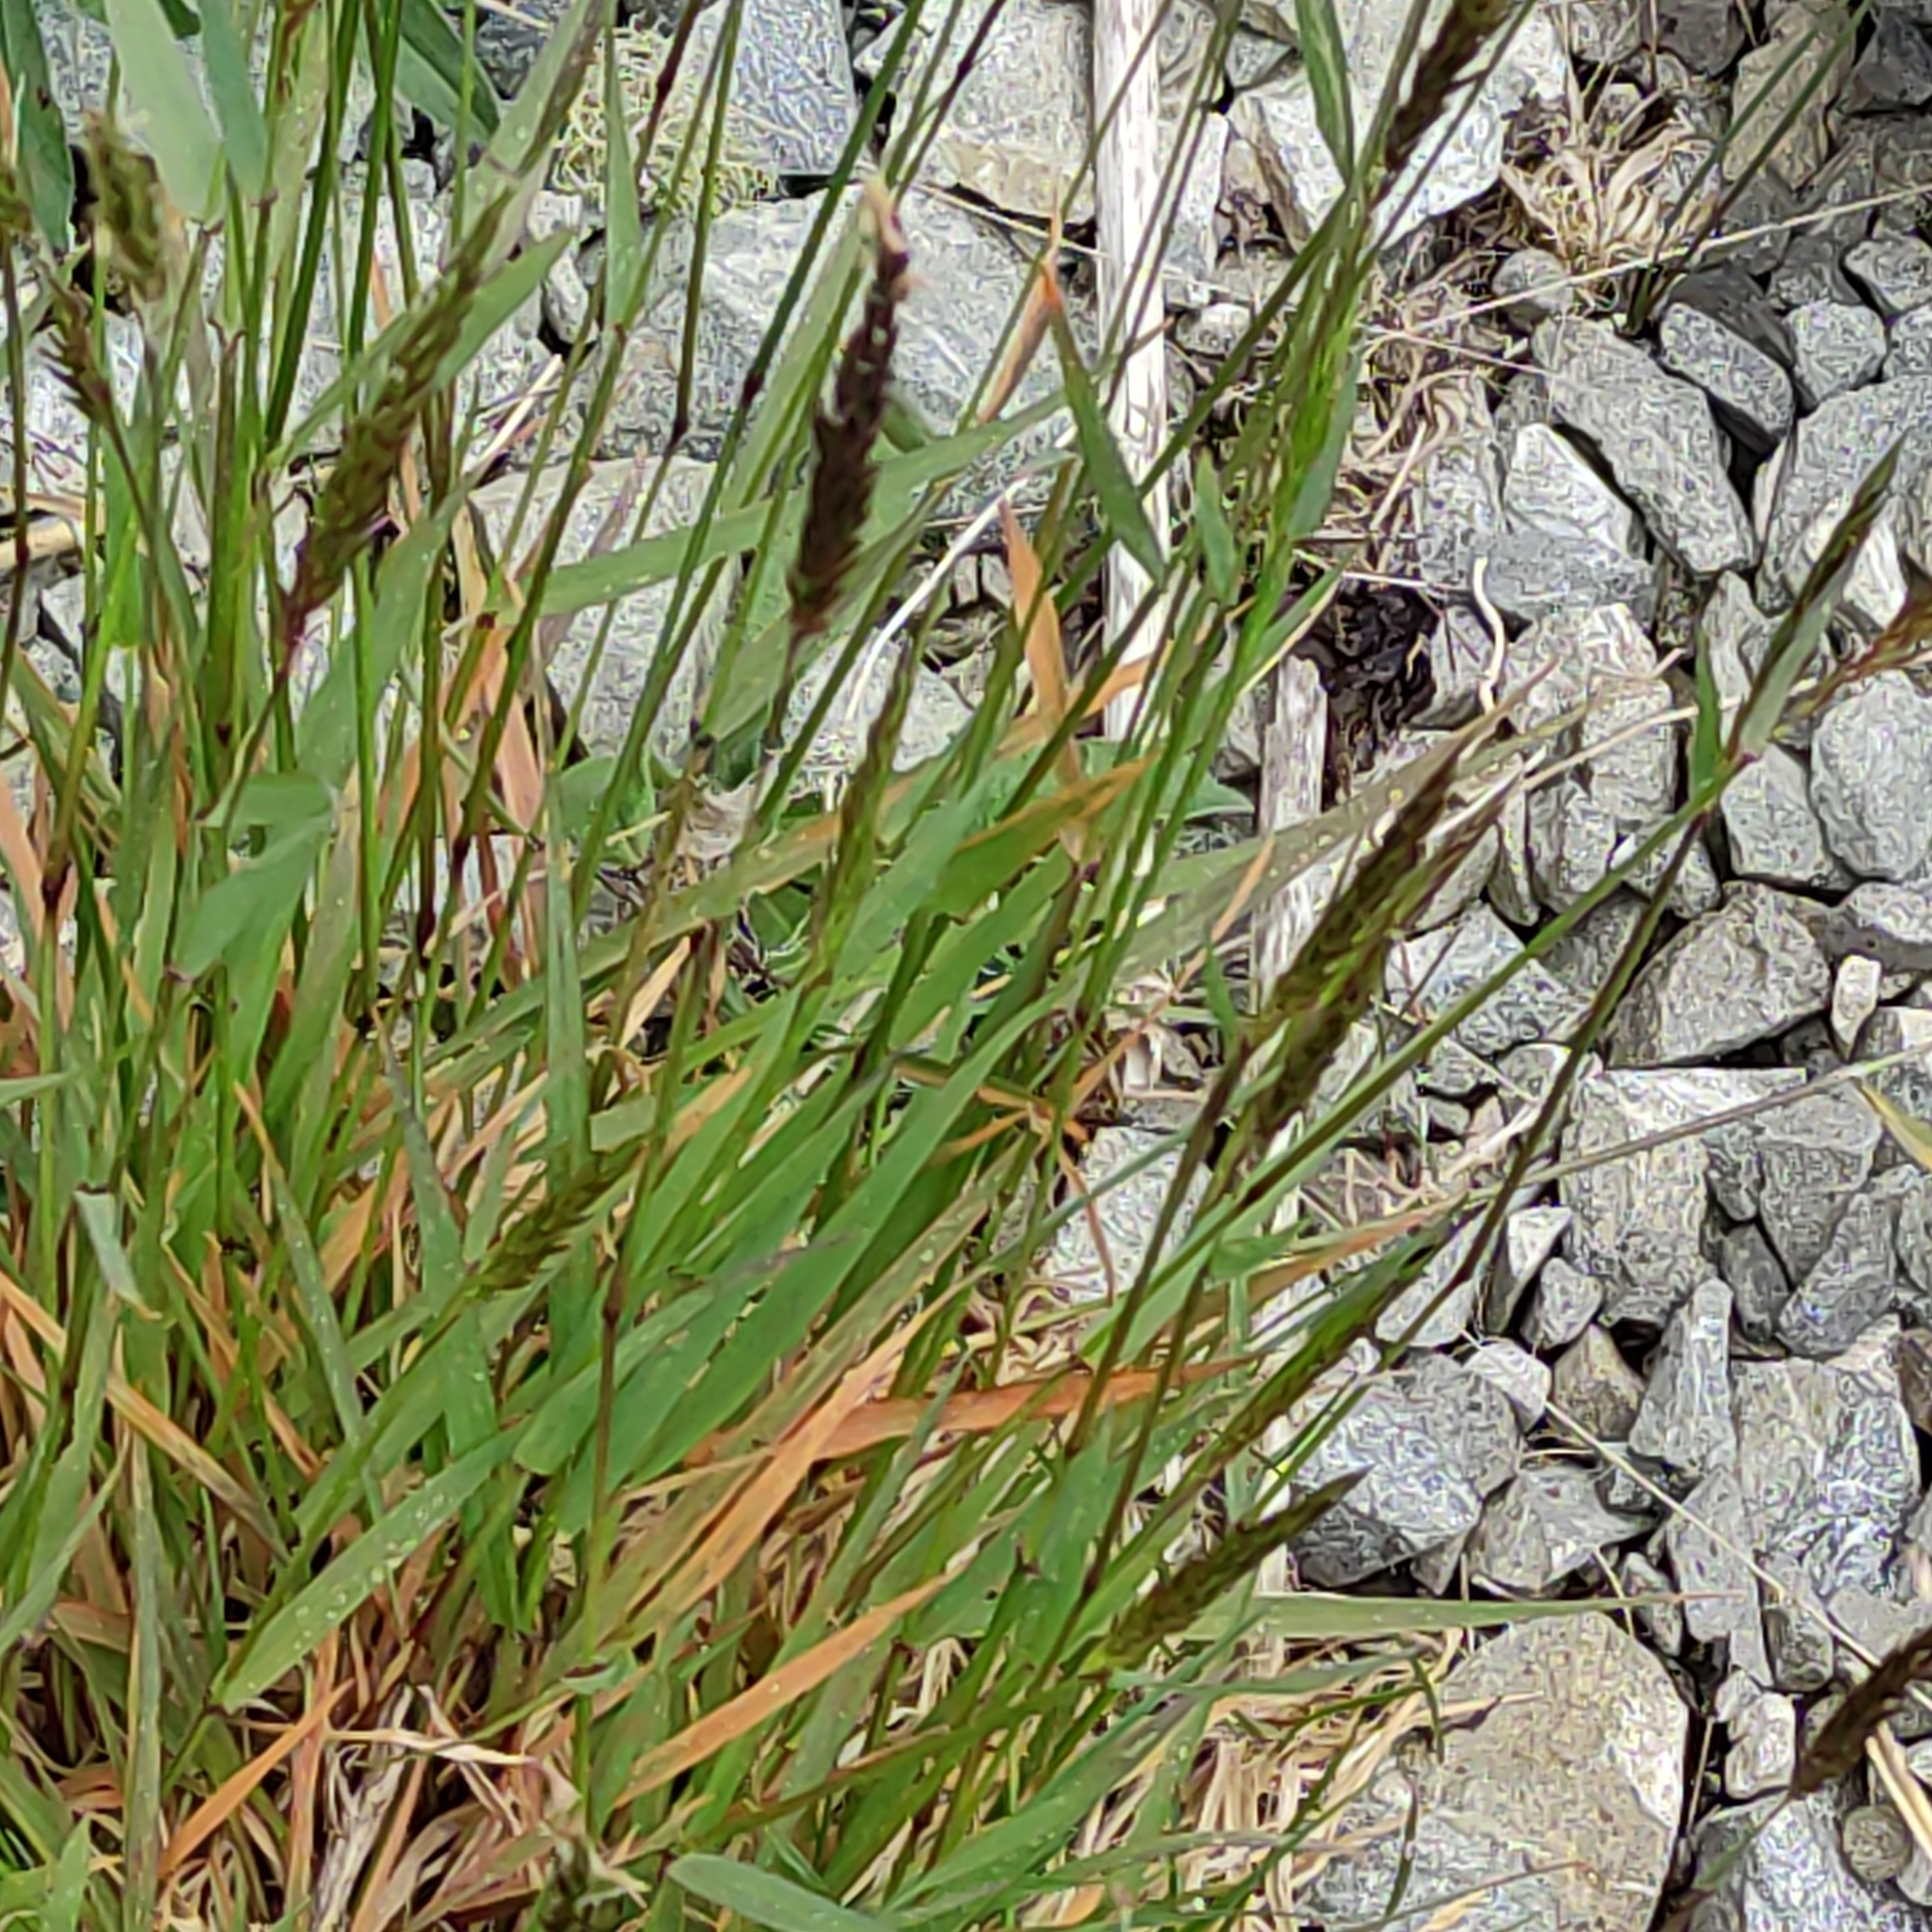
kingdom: Plantae
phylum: Tracheophyta
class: Liliopsida
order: Poales
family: Poaceae
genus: Anthoxanthum
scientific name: Anthoxanthum odoratum
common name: Sweet vernalgrass
